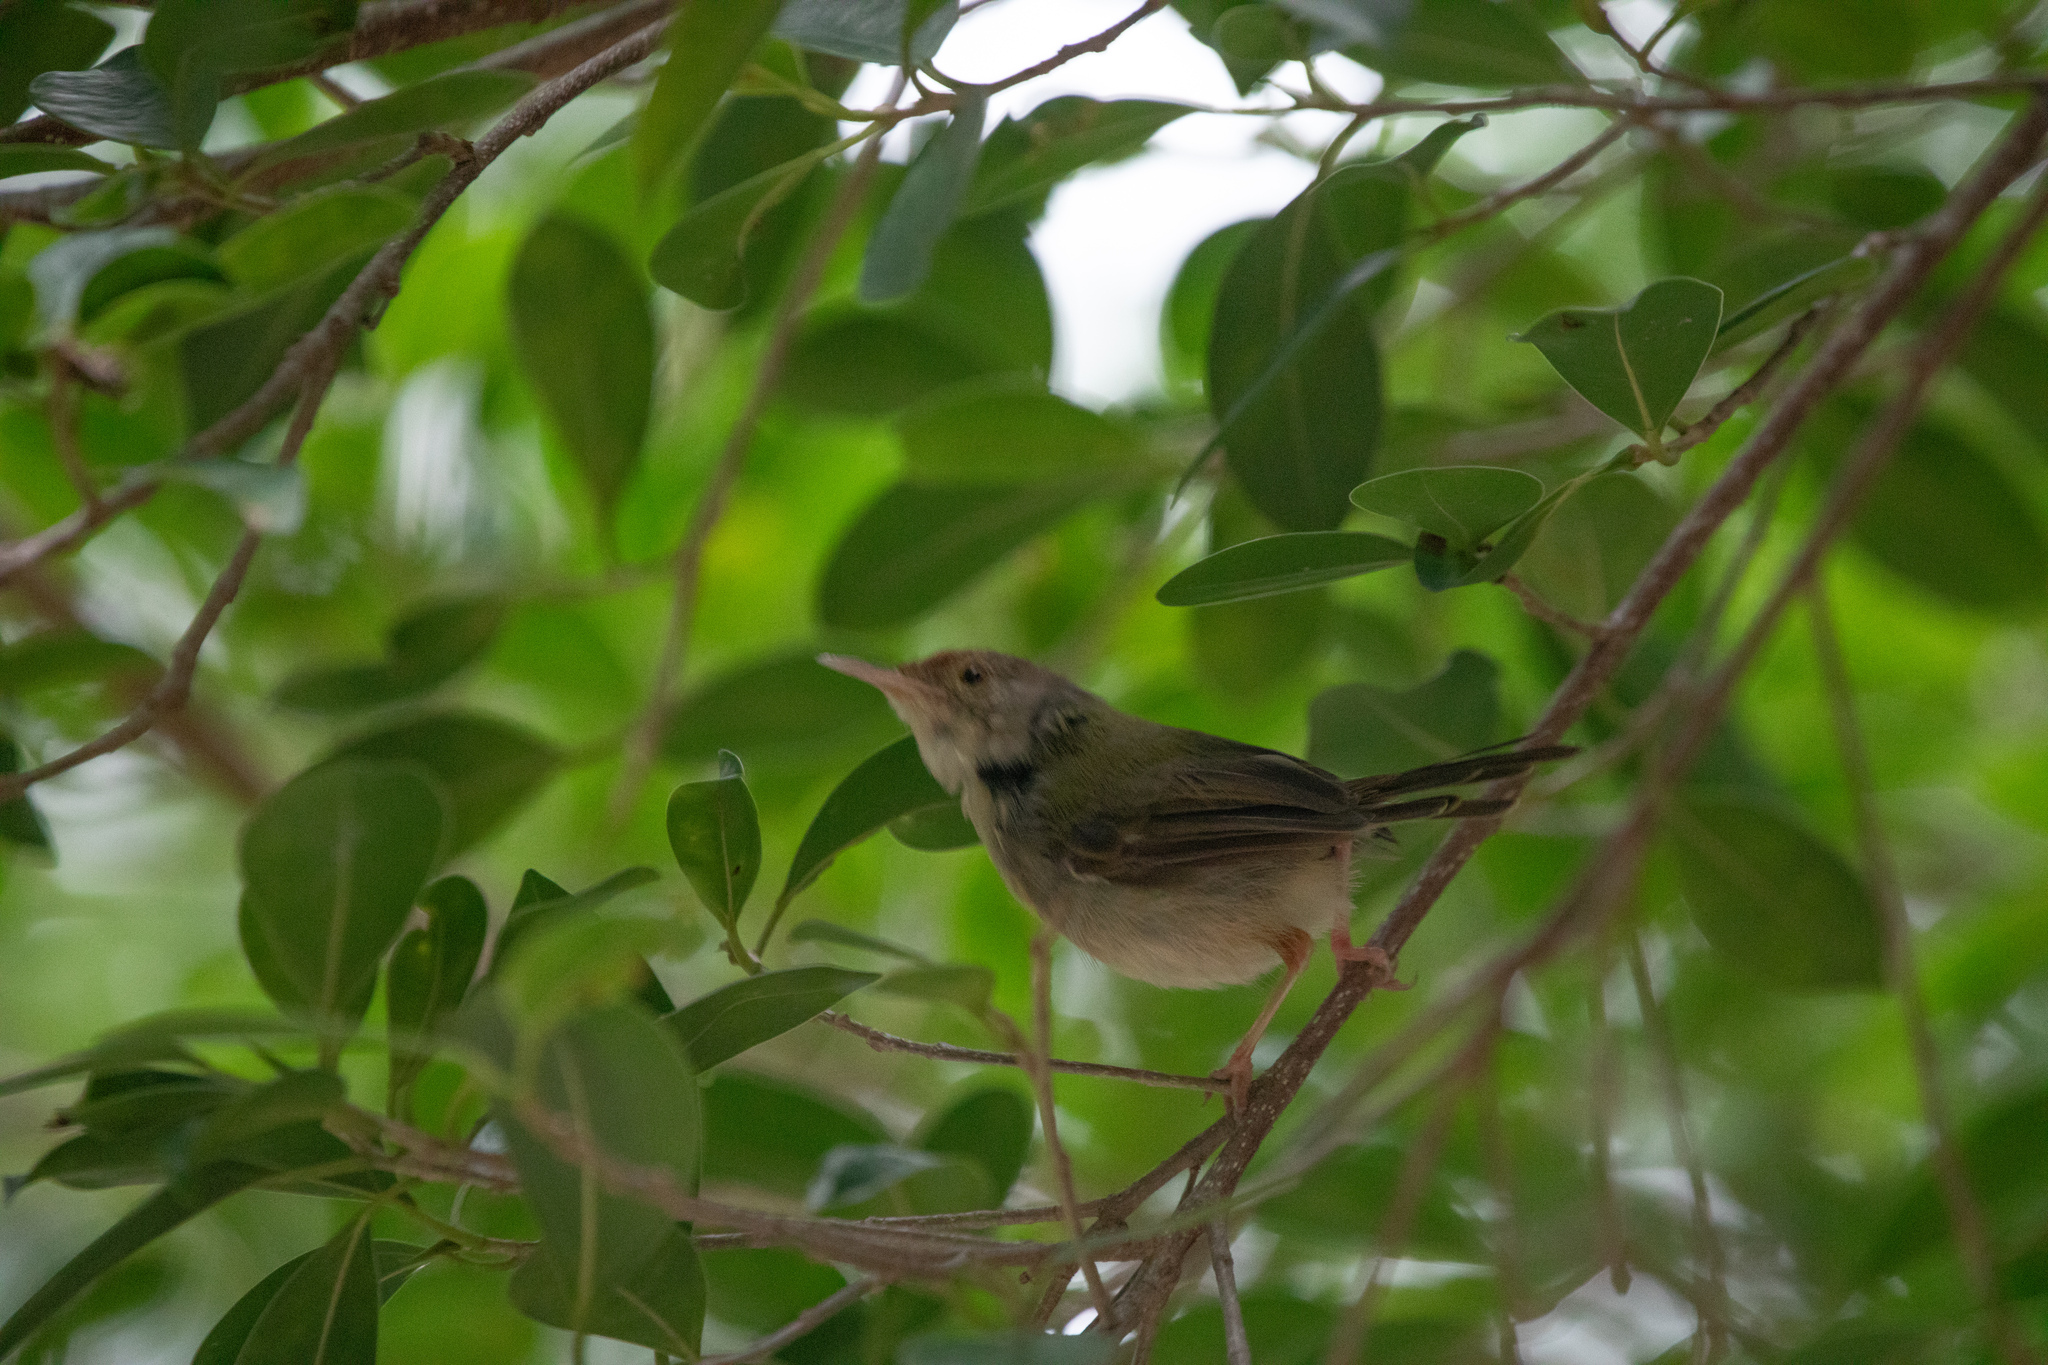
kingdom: Animalia
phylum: Chordata
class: Aves
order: Passeriformes
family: Cisticolidae
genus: Orthotomus
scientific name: Orthotomus sutorius
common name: Common tailorbird
